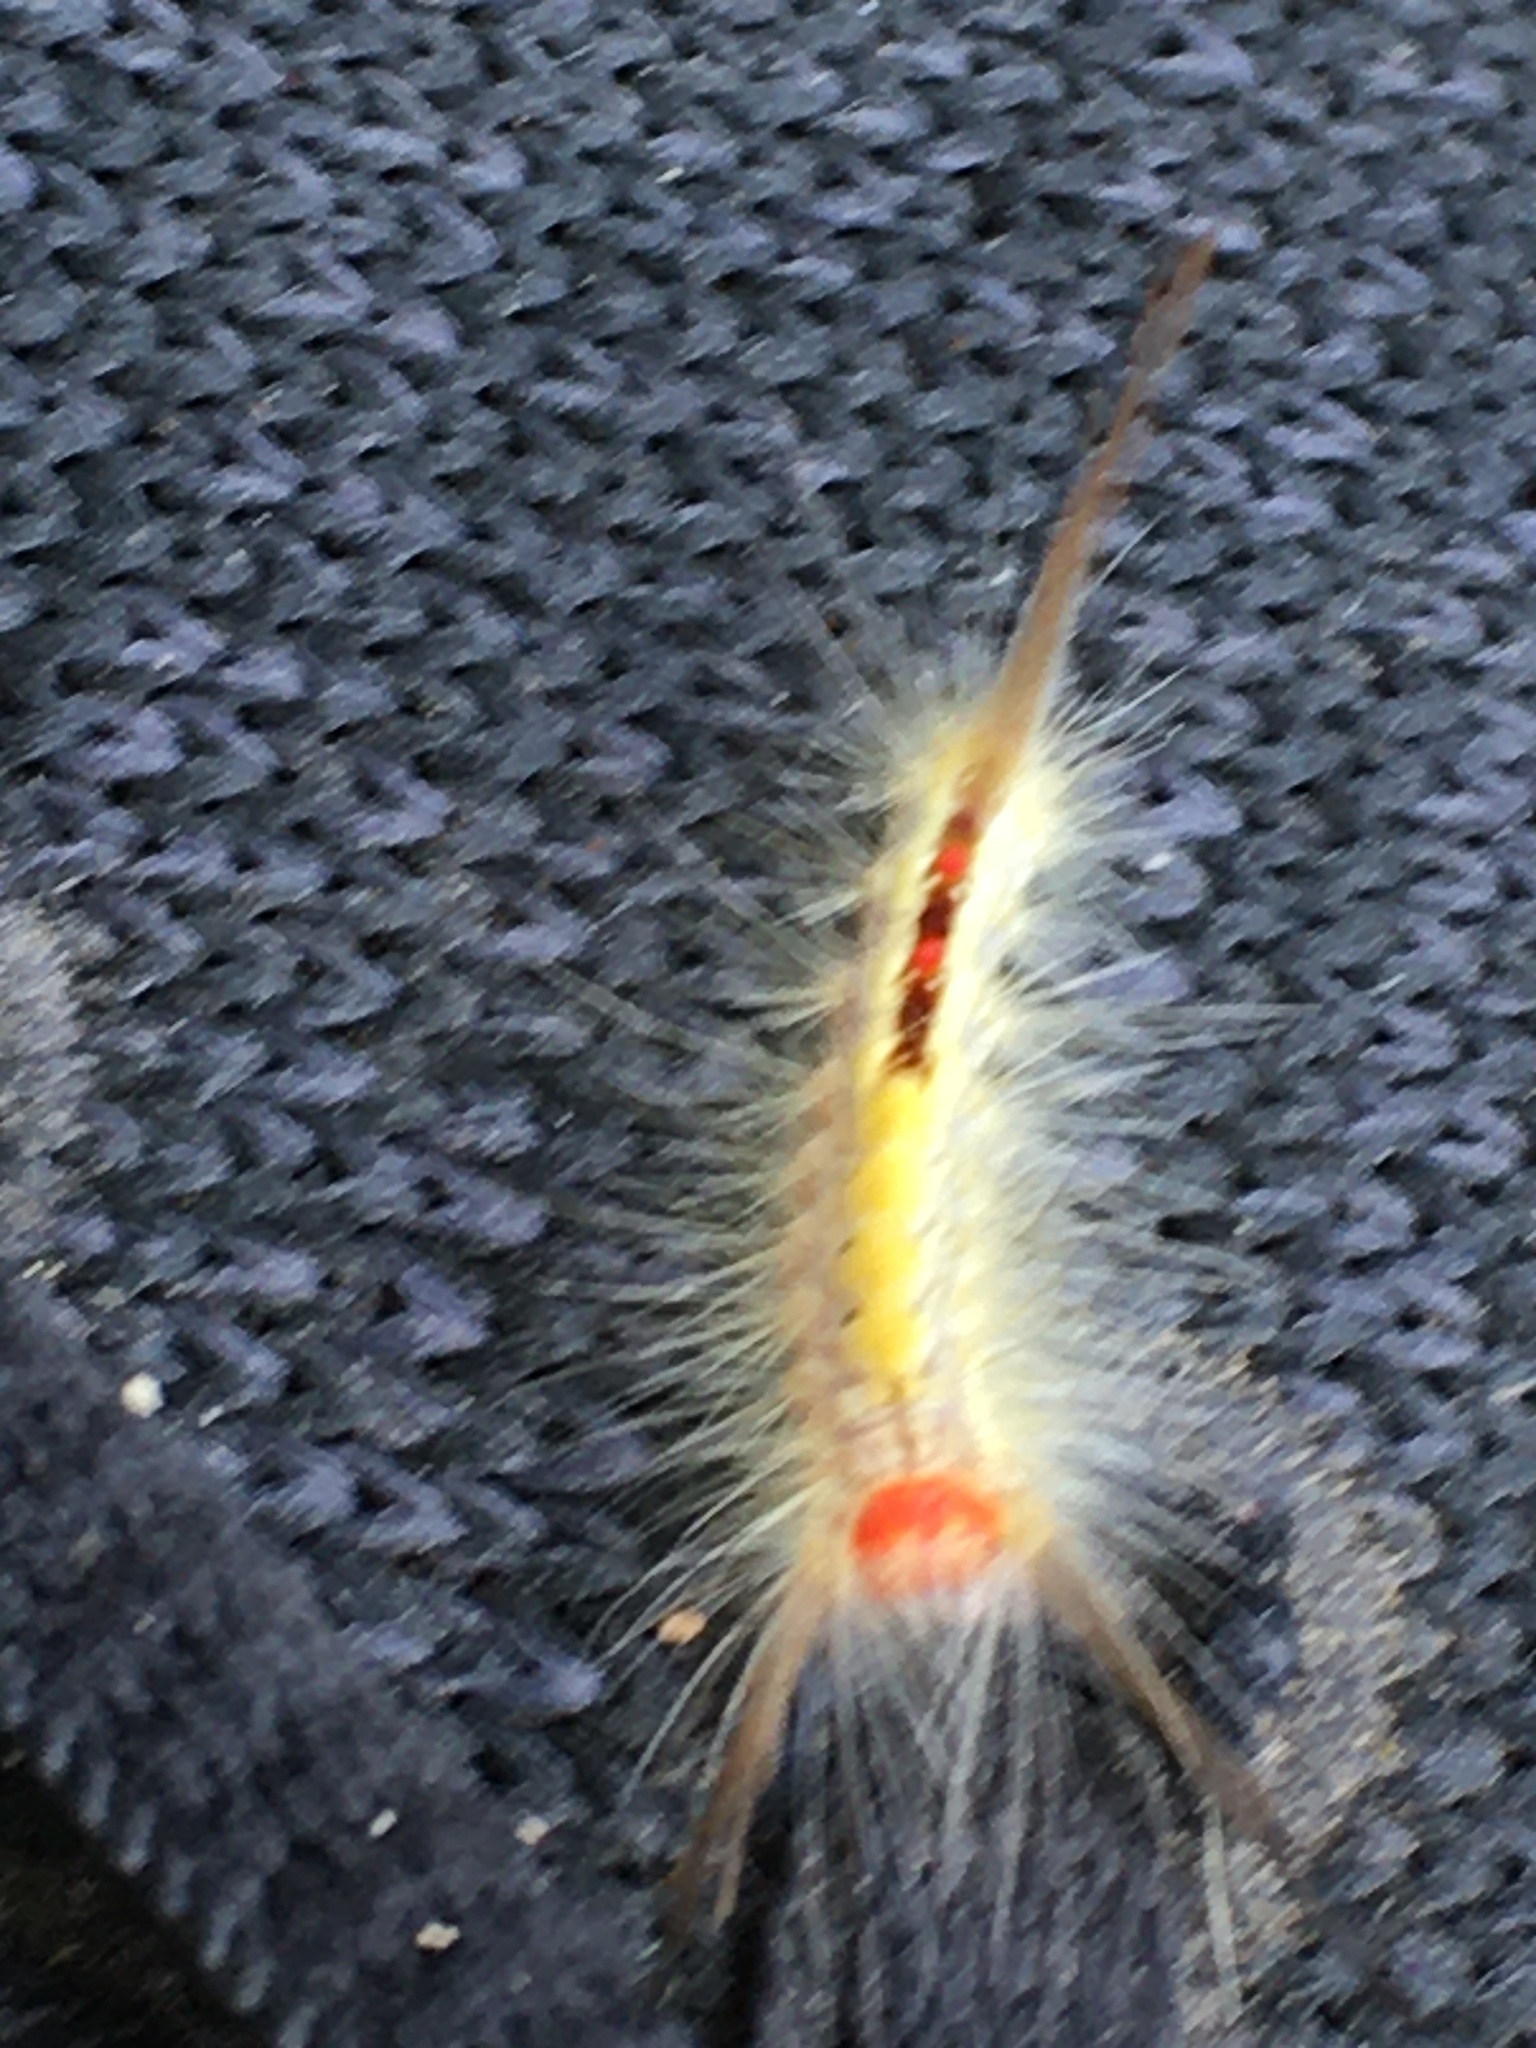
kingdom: Animalia
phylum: Arthropoda
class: Insecta
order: Lepidoptera
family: Erebidae
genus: Orgyia
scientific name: Orgyia leucostigma
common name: White-marked tussock moth
